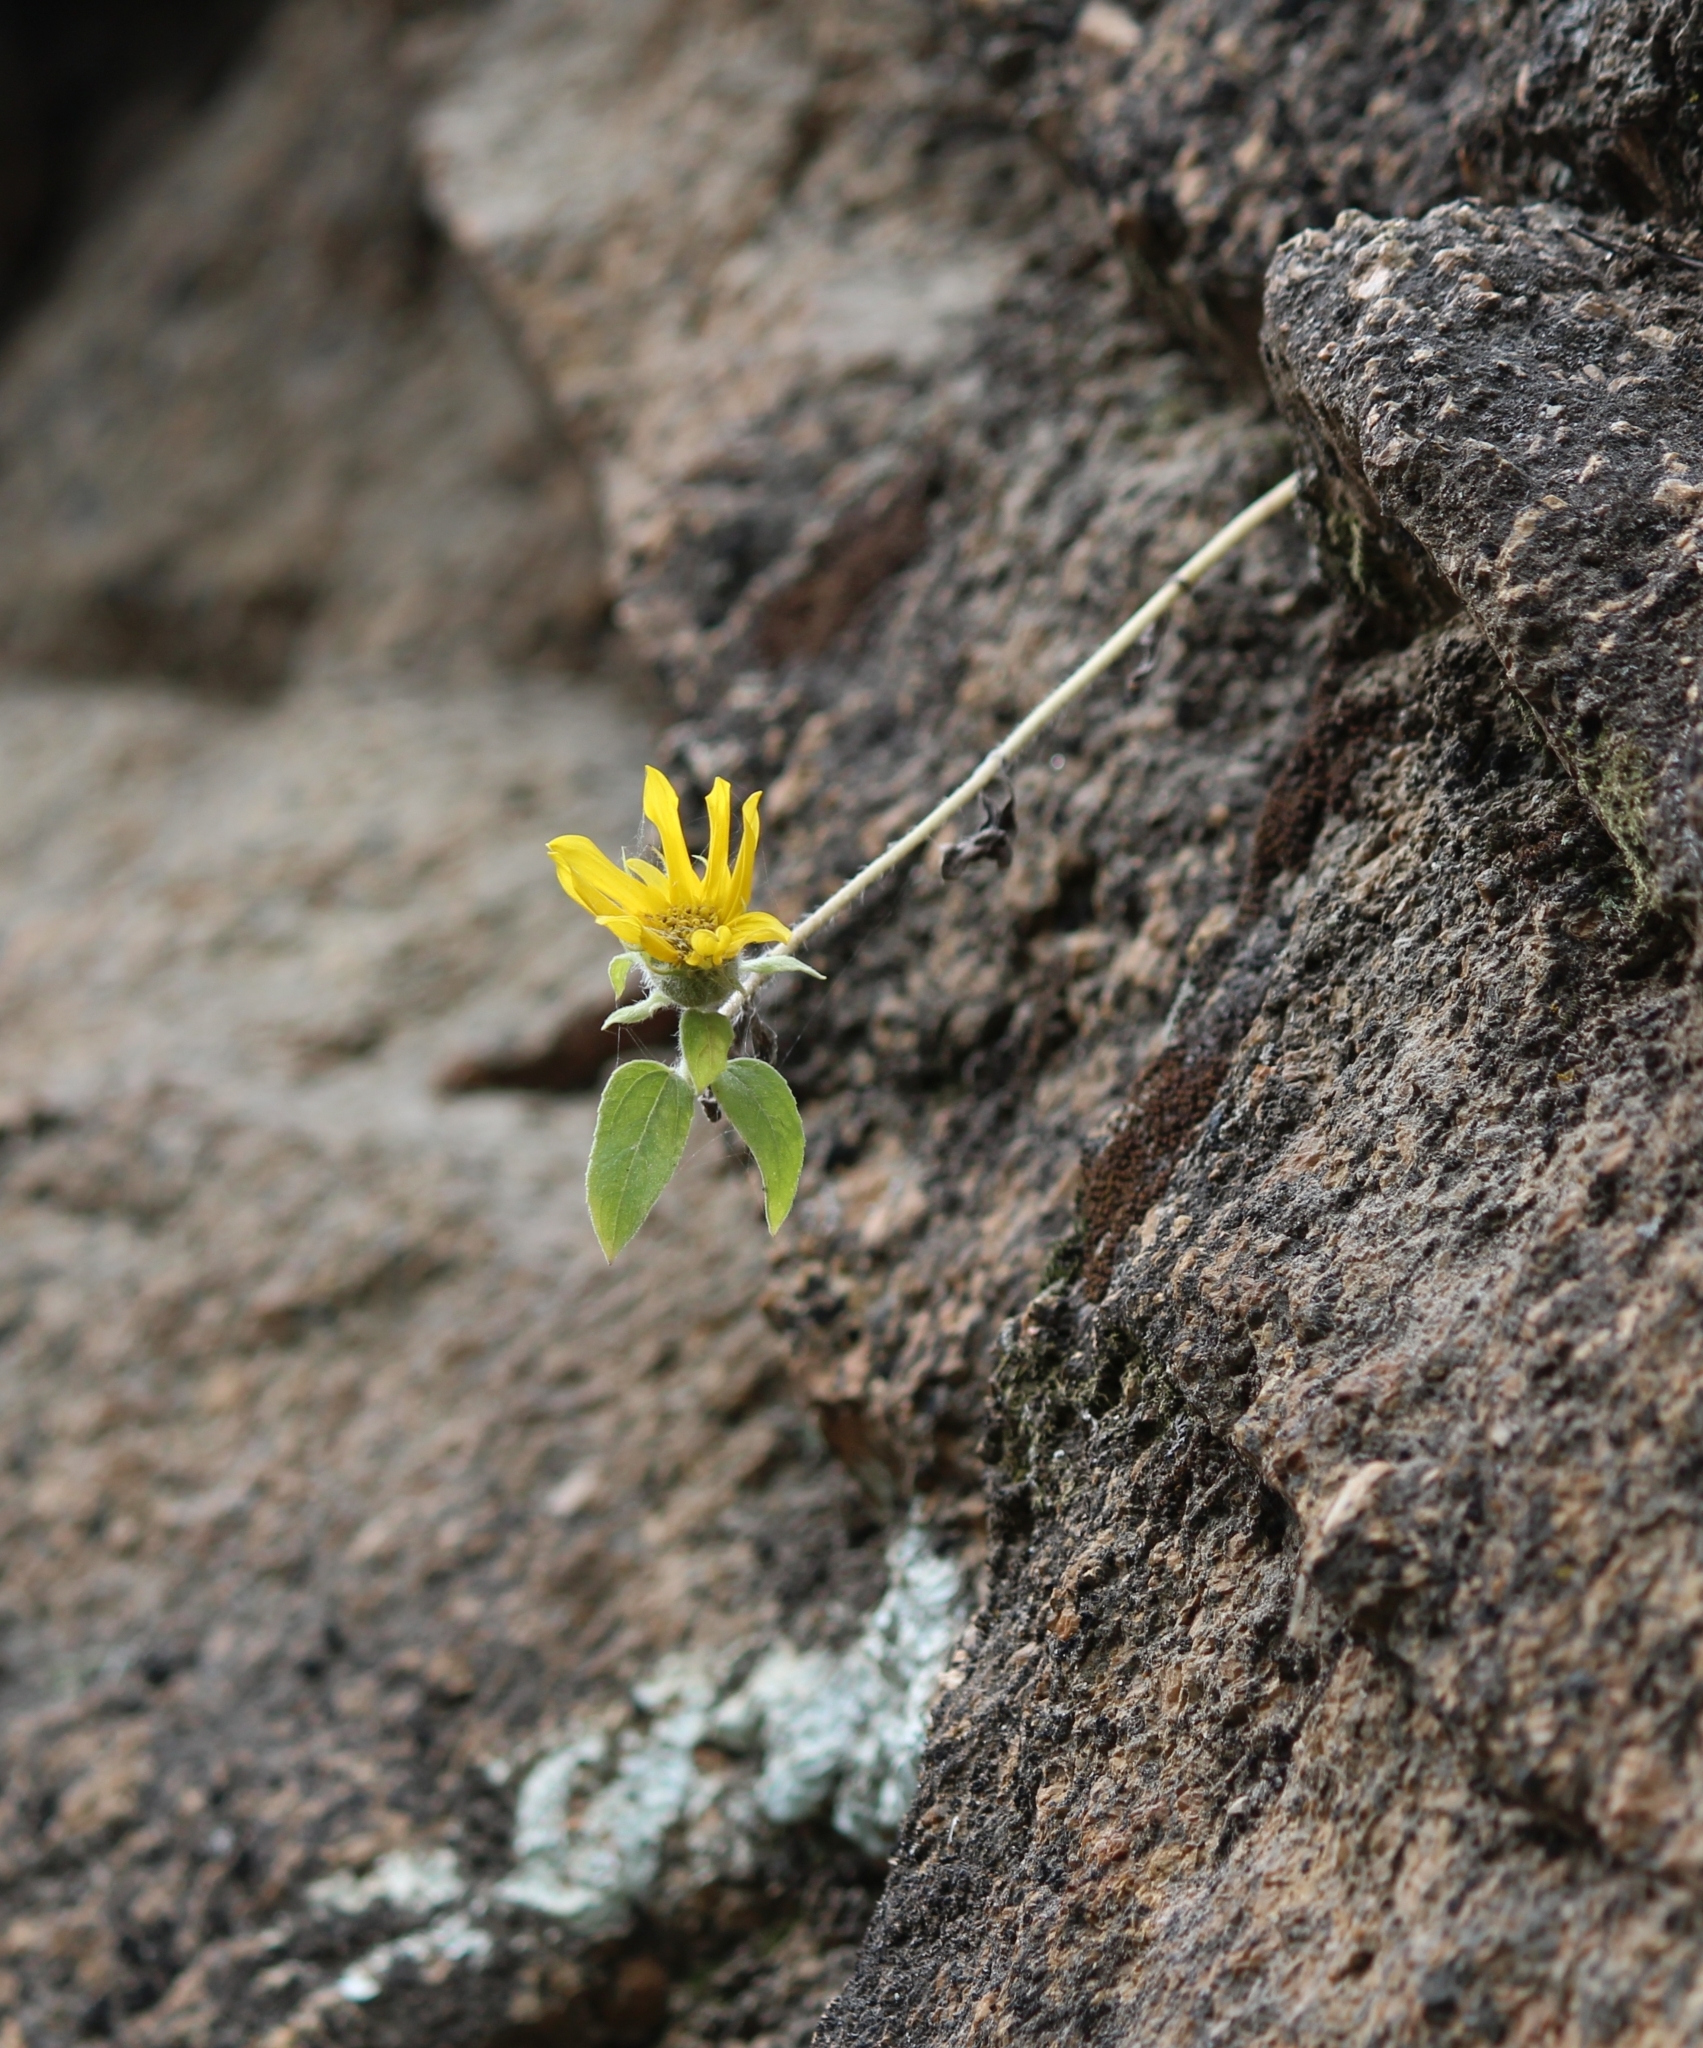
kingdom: Plantae
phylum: Tracheophyta
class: Magnoliopsida
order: Asterales
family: Asteraceae
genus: Helianthus
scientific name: Helianthus annuus
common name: Sunflower
